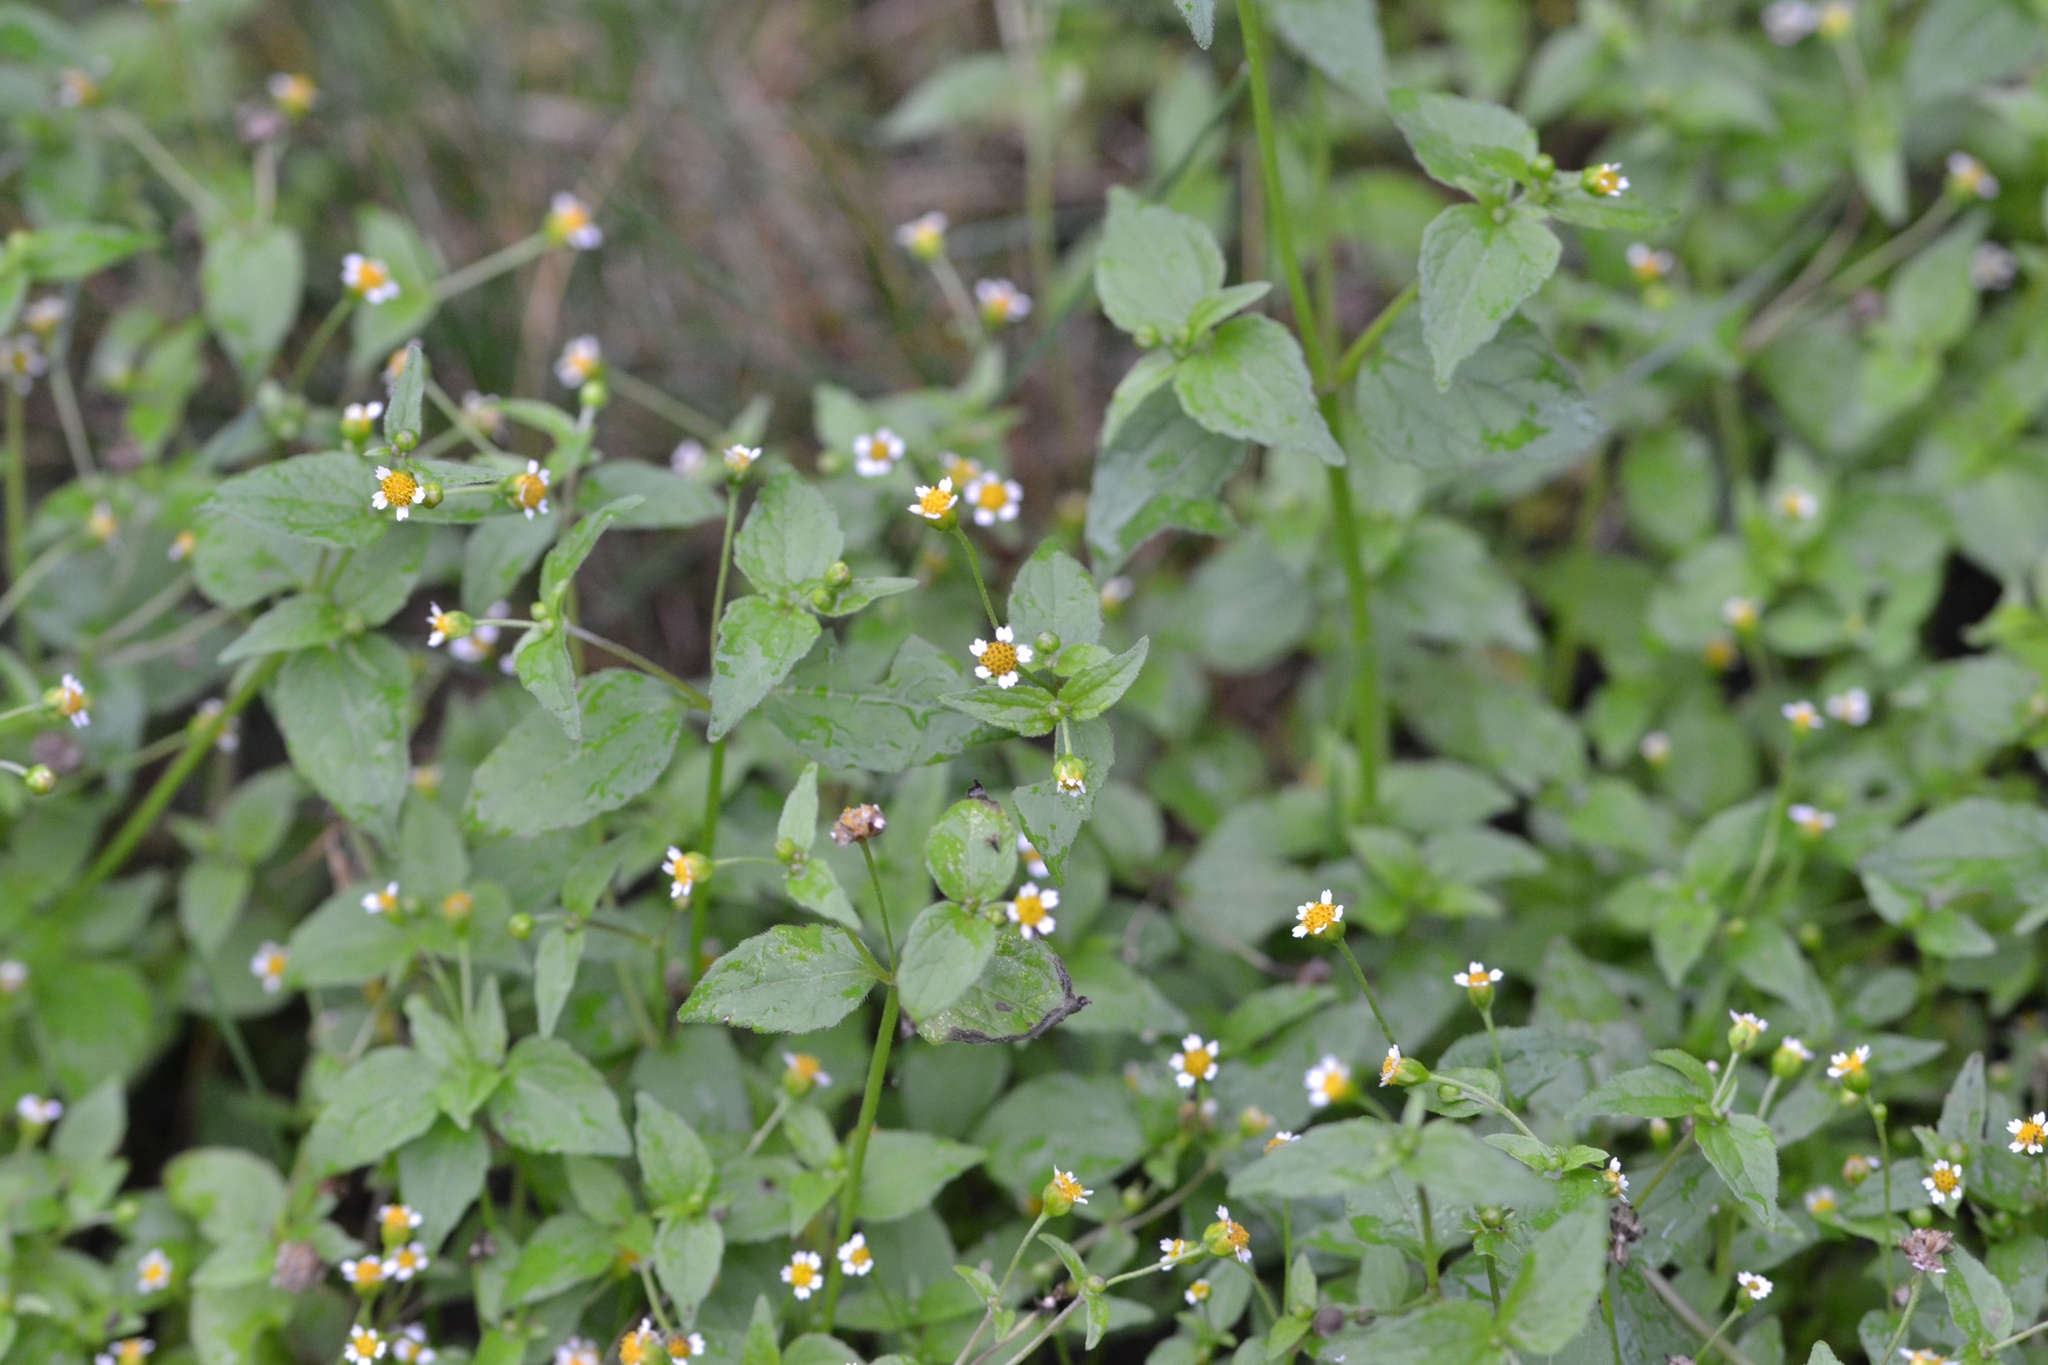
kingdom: Plantae
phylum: Tracheophyta
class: Magnoliopsida
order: Asterales
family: Asteraceae
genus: Galinsoga
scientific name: Galinsoga parviflora
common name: Gallant soldier
